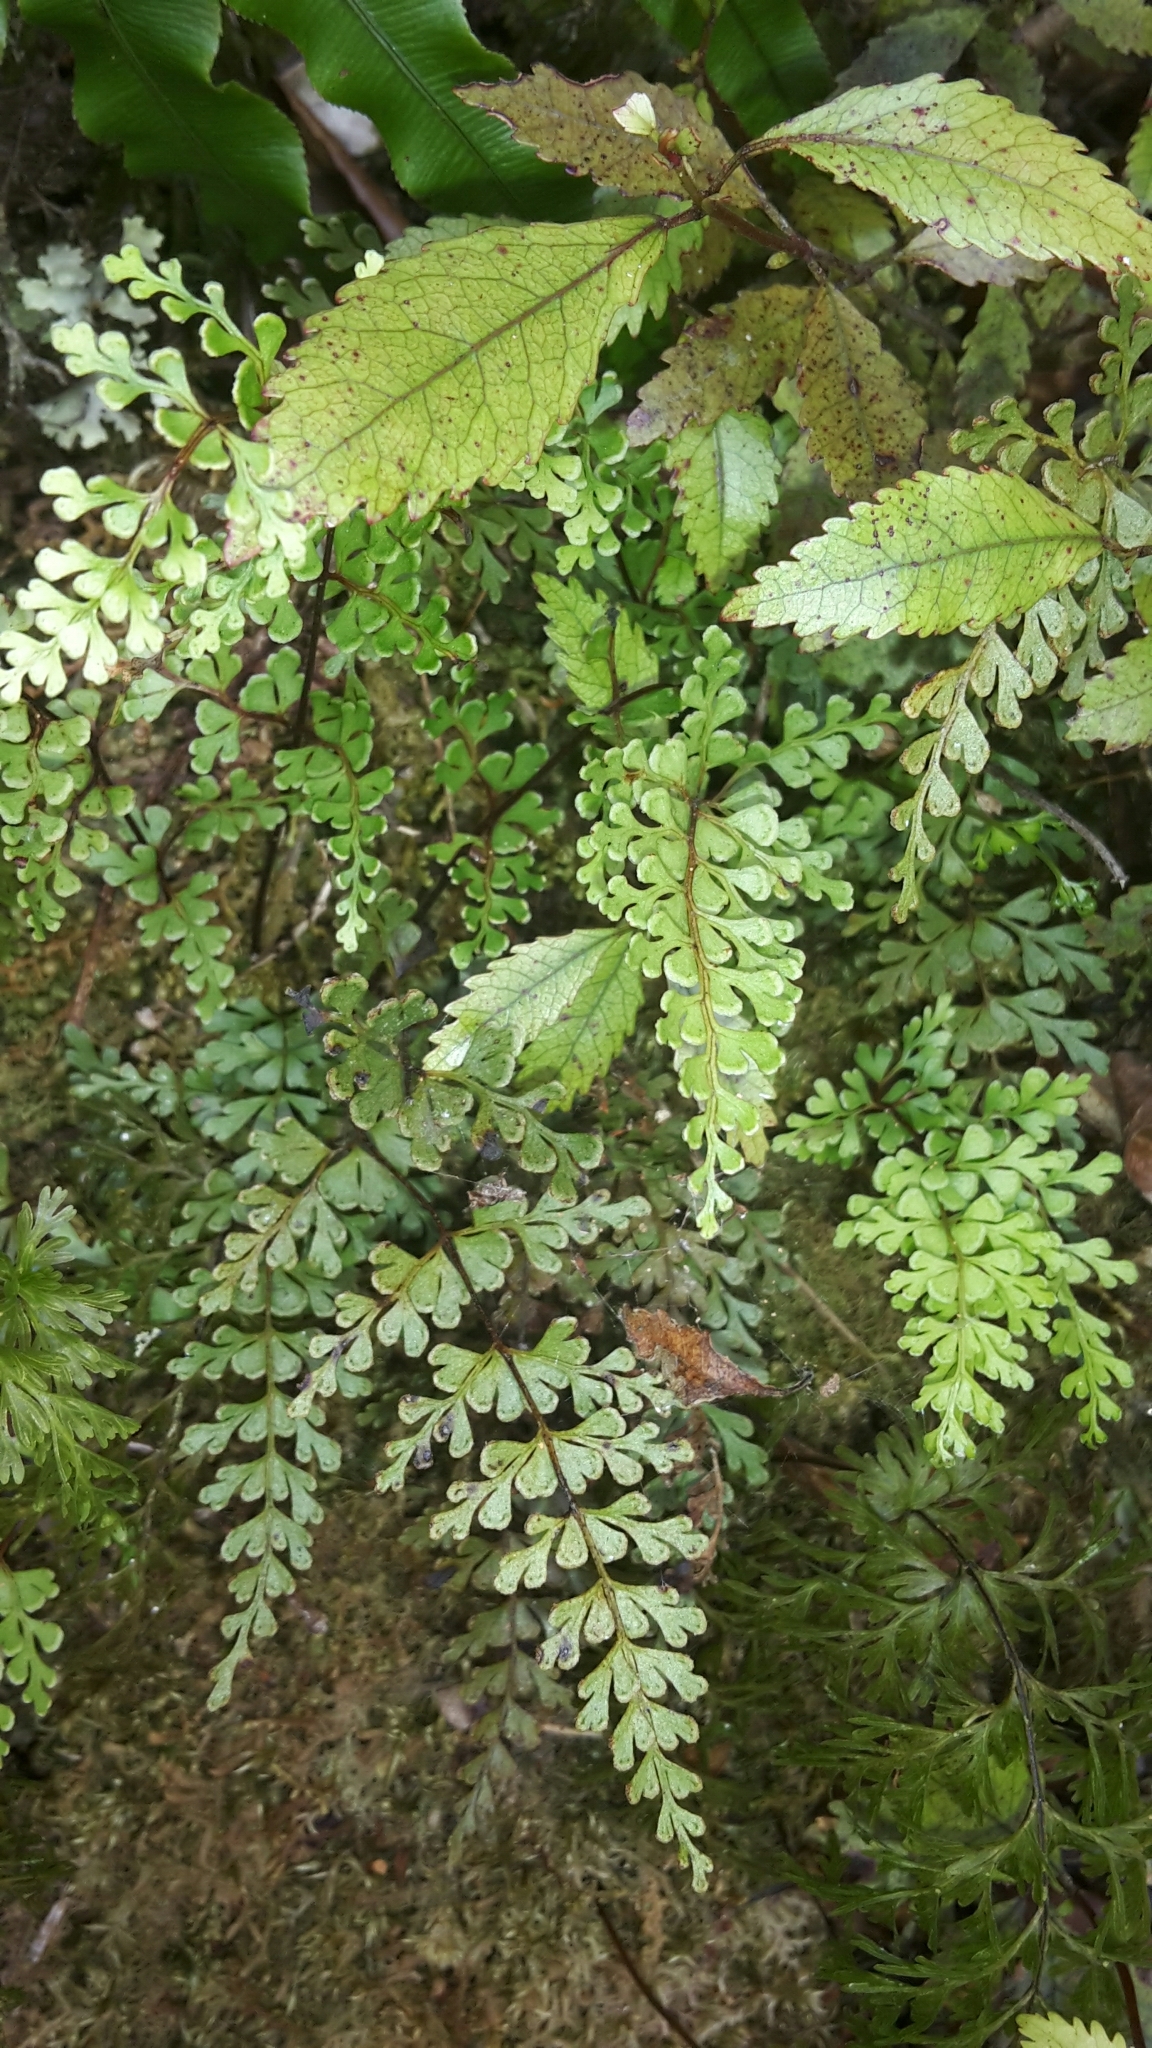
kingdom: Plantae
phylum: Tracheophyta
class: Polypodiopsida
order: Polypodiales
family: Lindsaeaceae
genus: Lindsaea
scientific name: Lindsaea trichomanoides
